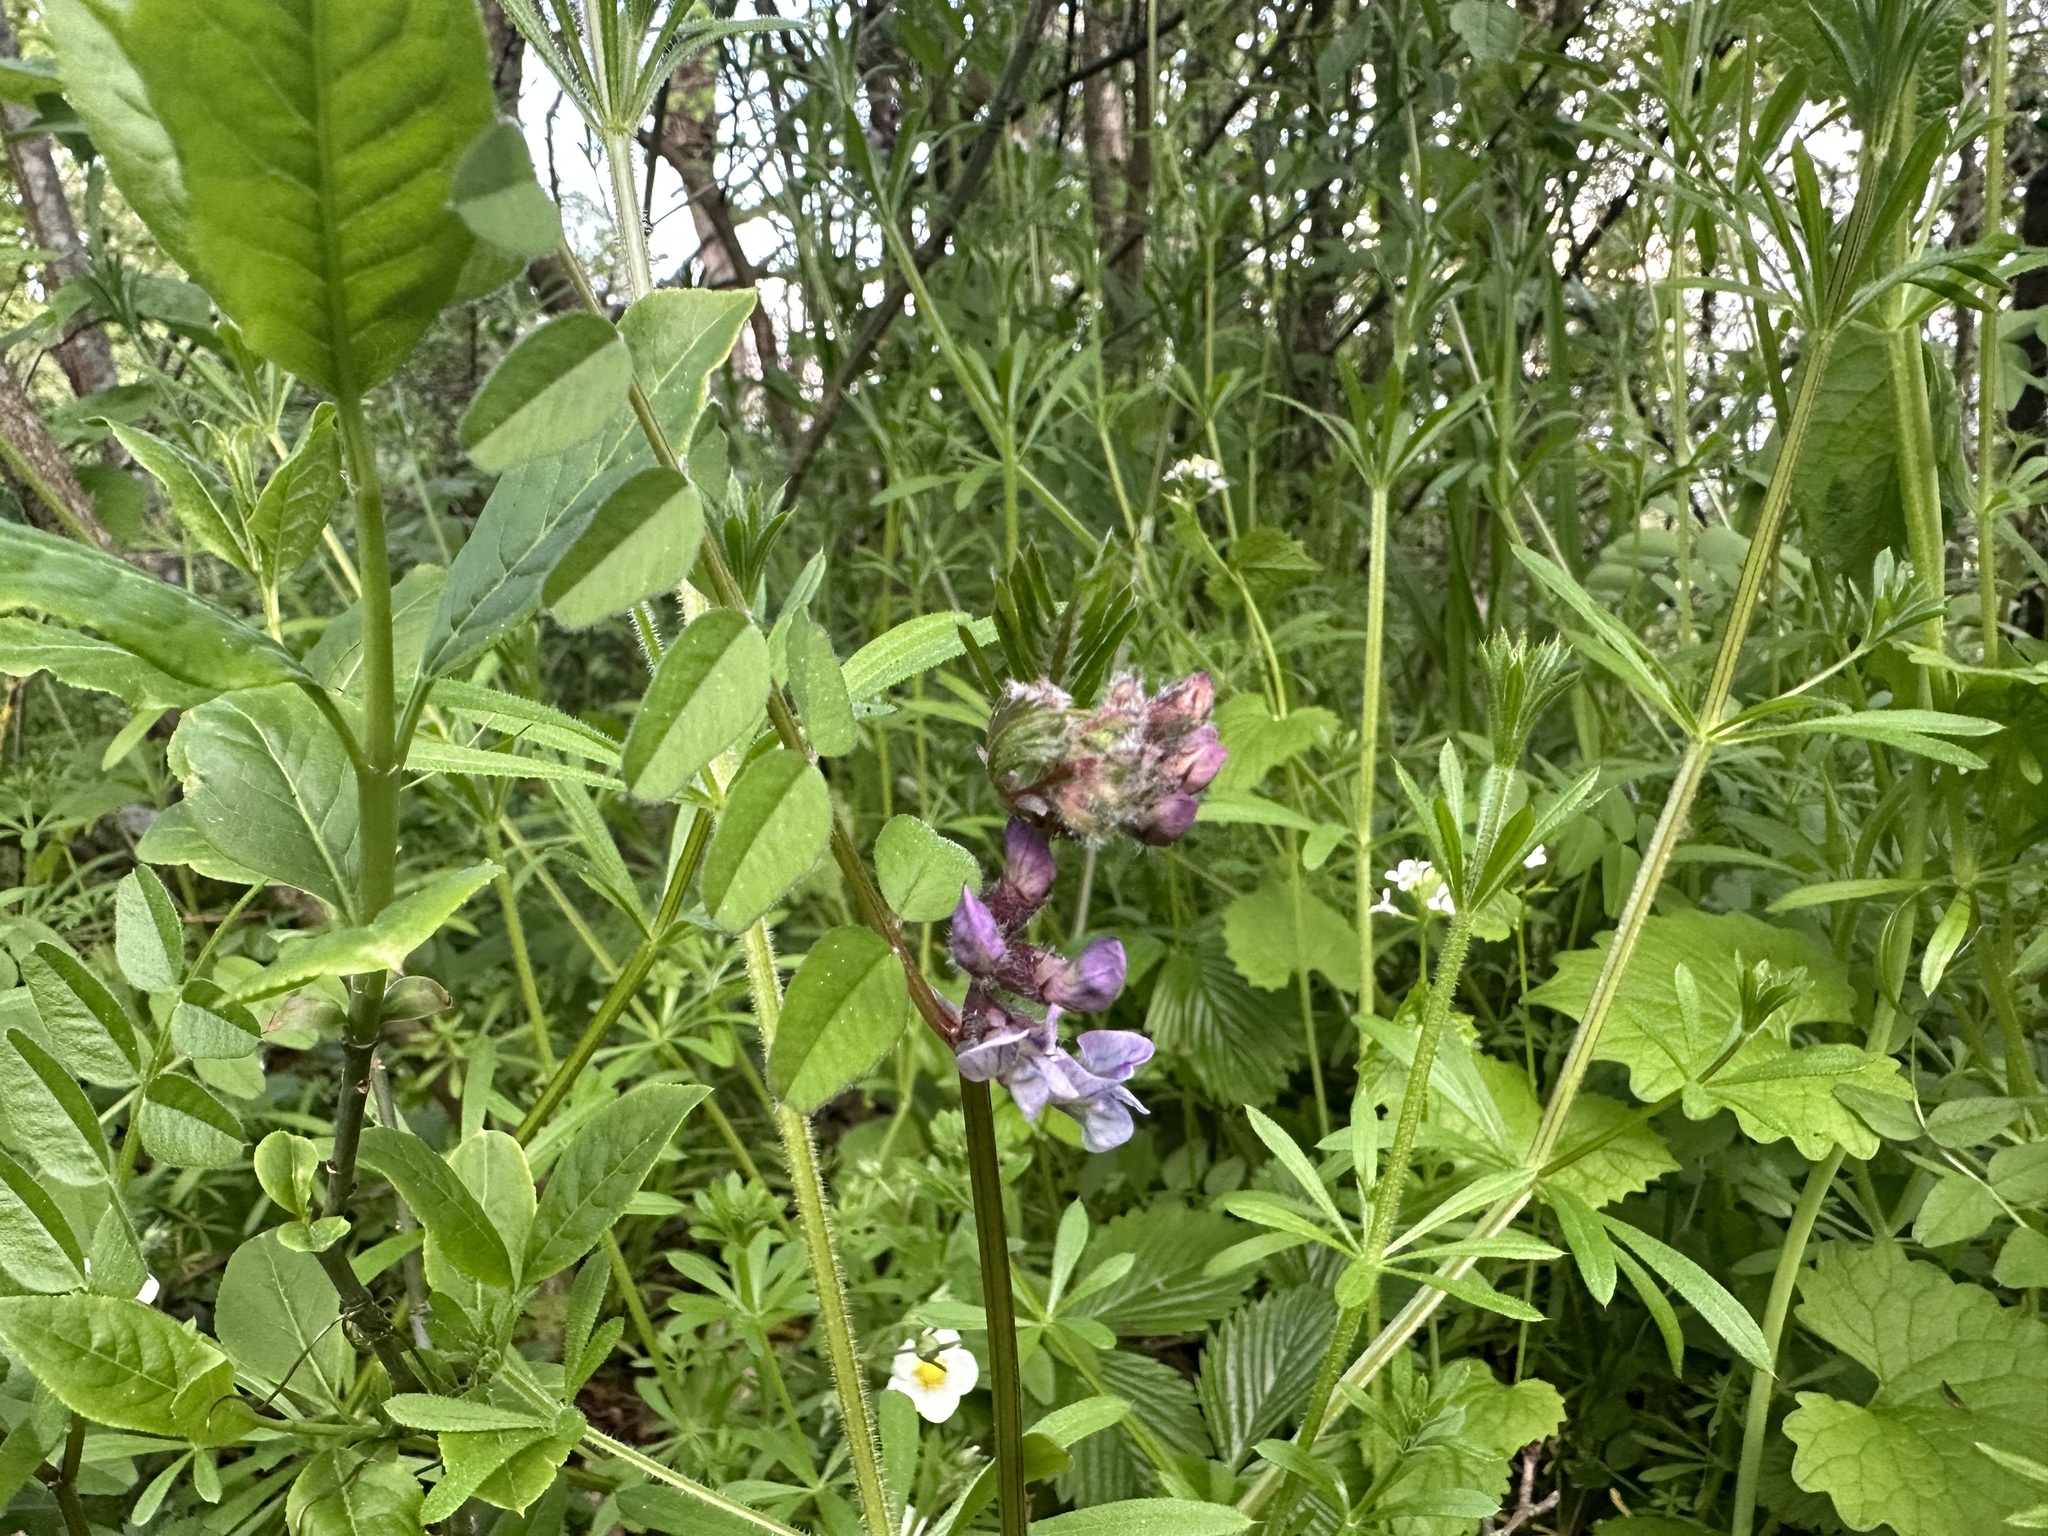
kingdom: Plantae
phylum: Tracheophyta
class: Magnoliopsida
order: Fabales
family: Fabaceae
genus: Vicia
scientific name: Vicia sepium
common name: Bush vetch
